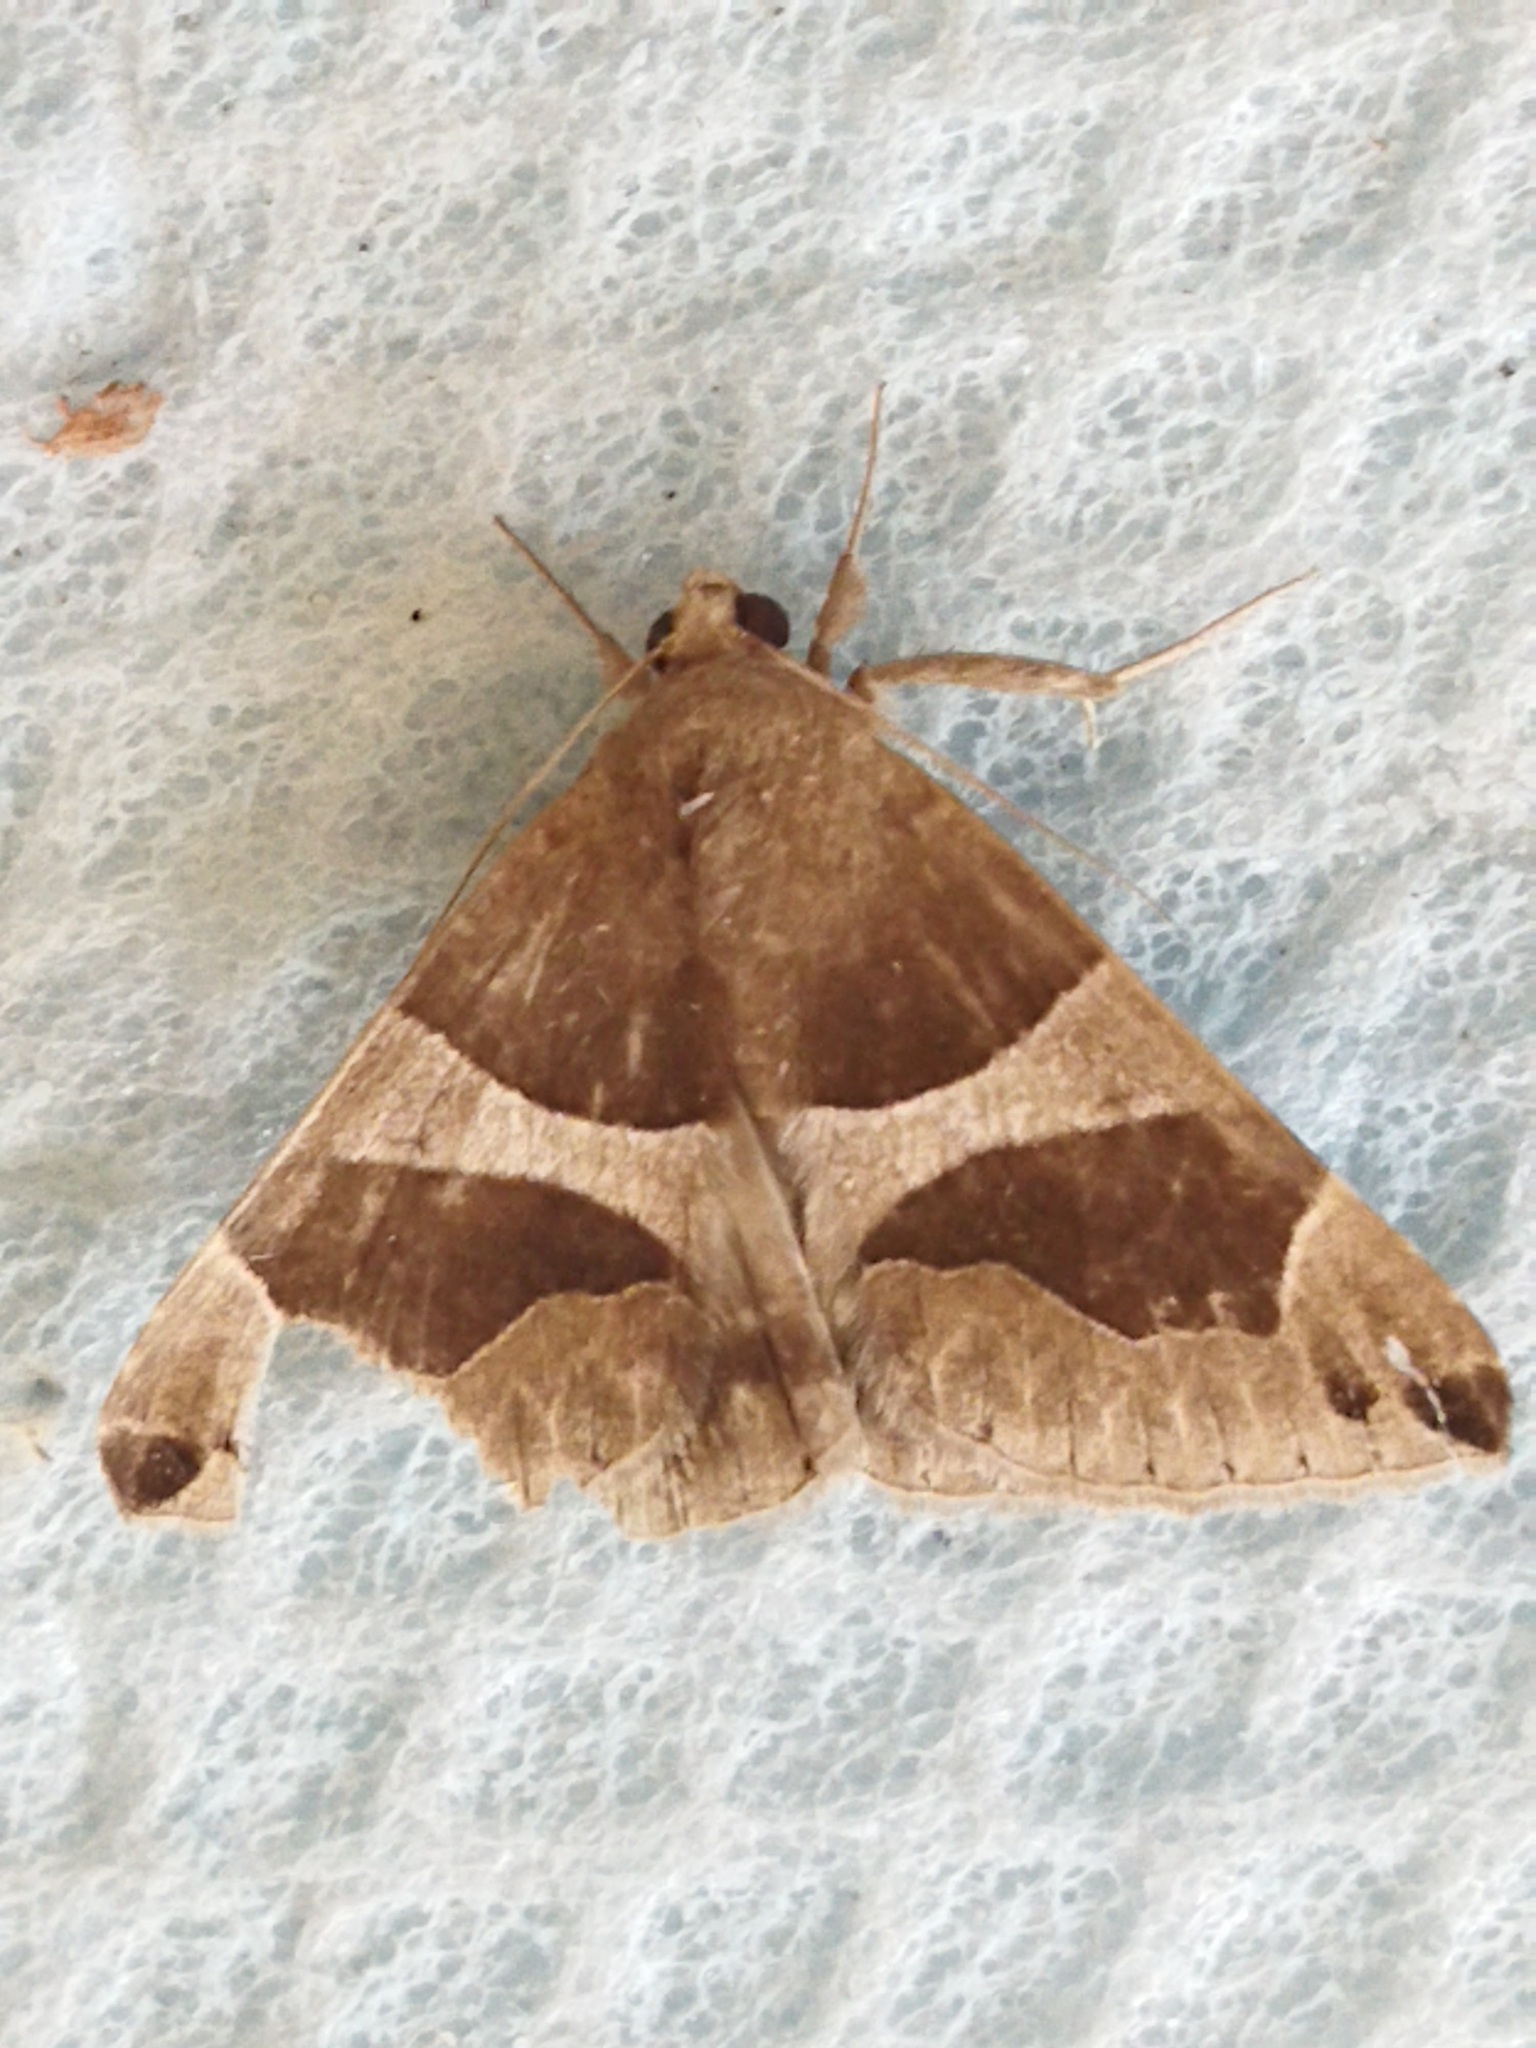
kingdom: Animalia
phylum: Arthropoda
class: Insecta
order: Lepidoptera
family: Erebidae
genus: Dysgonia
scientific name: Dysgonia algira
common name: Passenger
